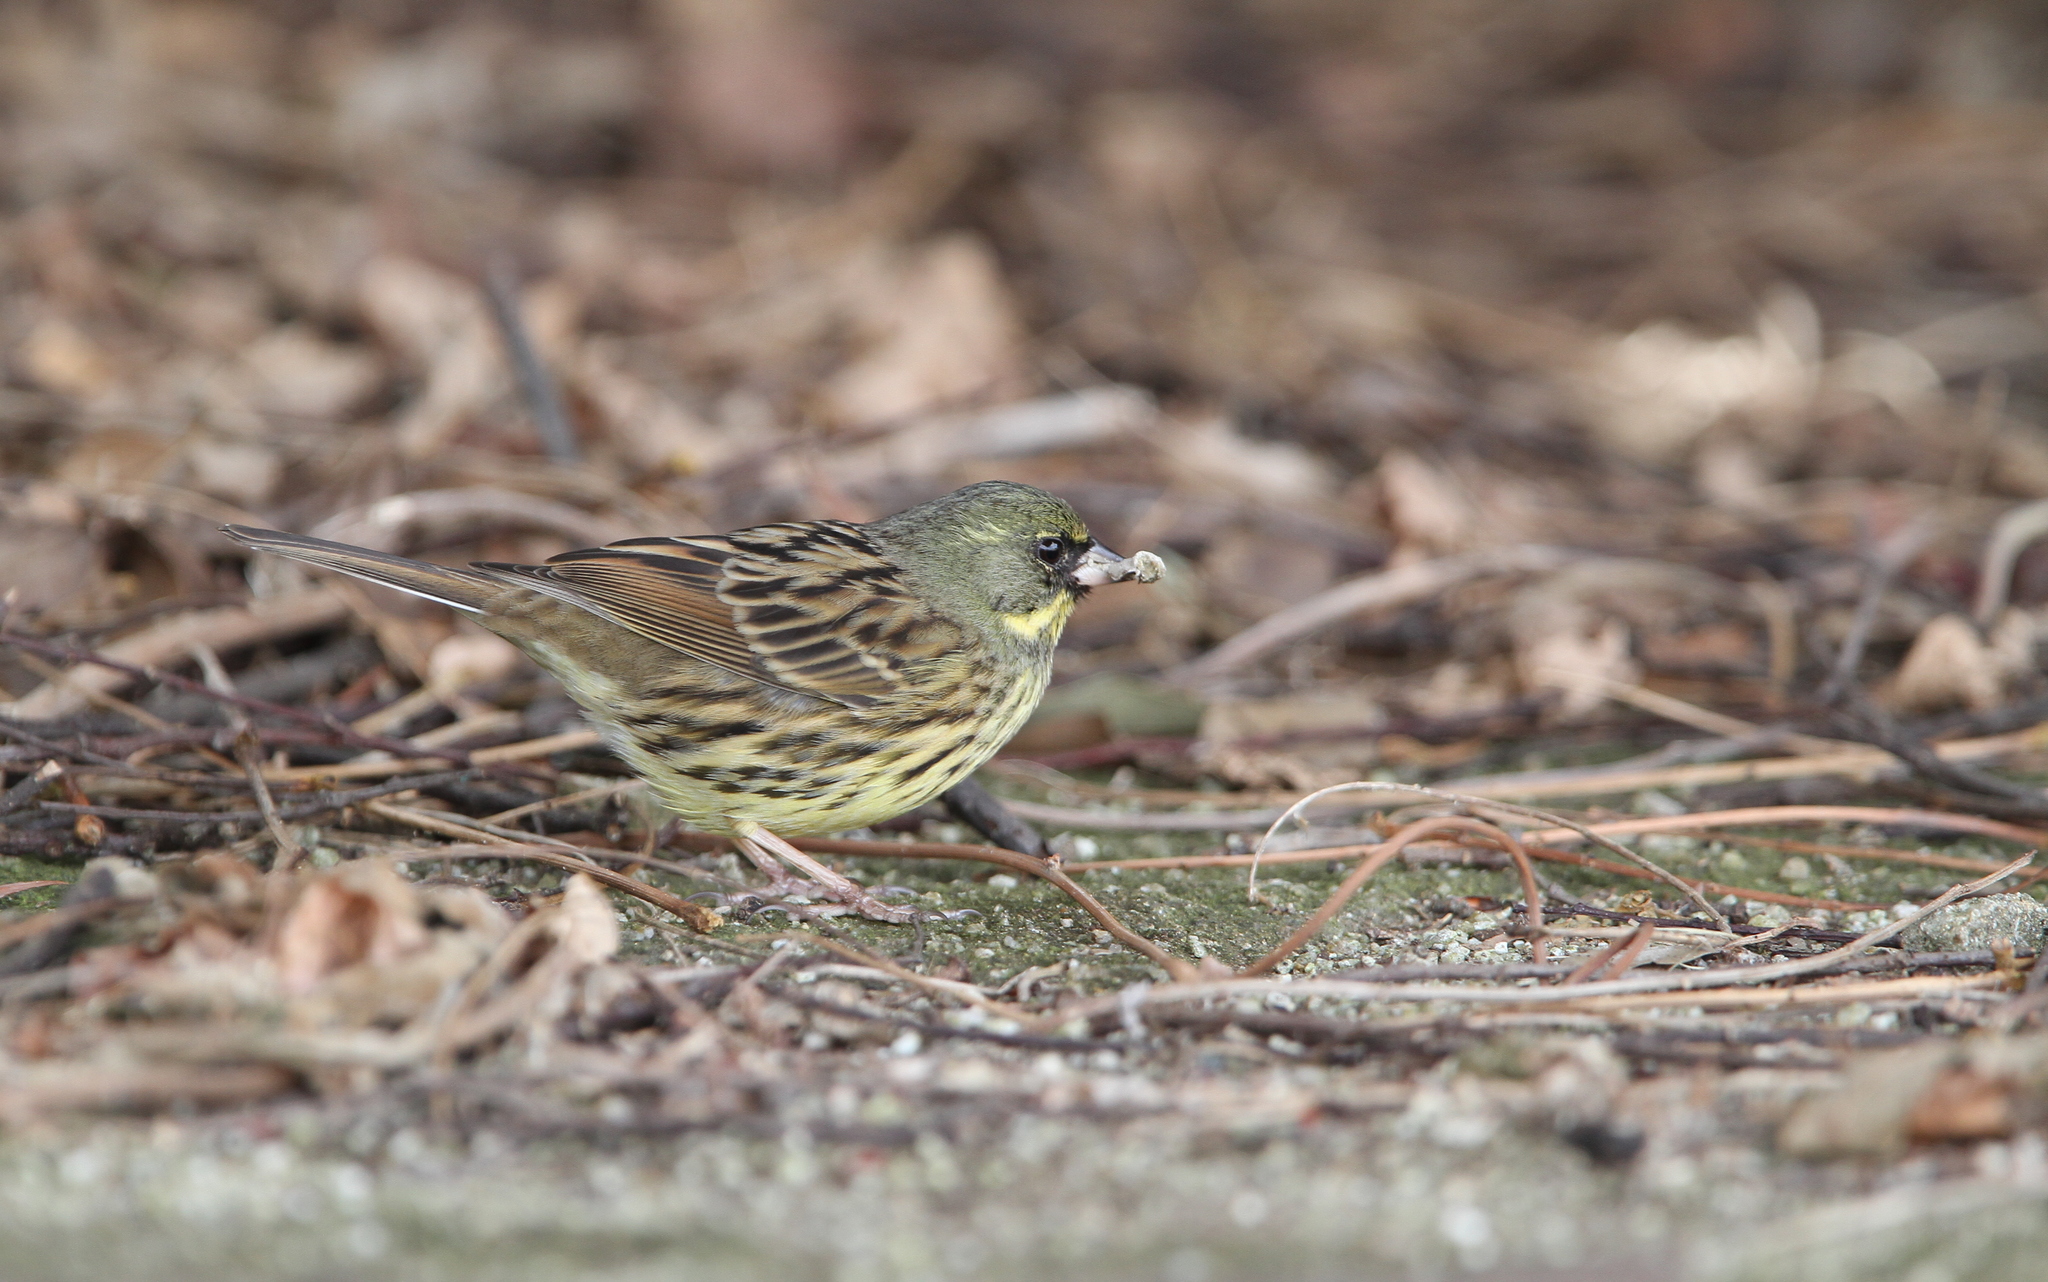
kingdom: Animalia
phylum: Chordata
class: Aves
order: Passeriformes
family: Emberizidae
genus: Emberiza
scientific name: Emberiza personata
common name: Masked bunting
